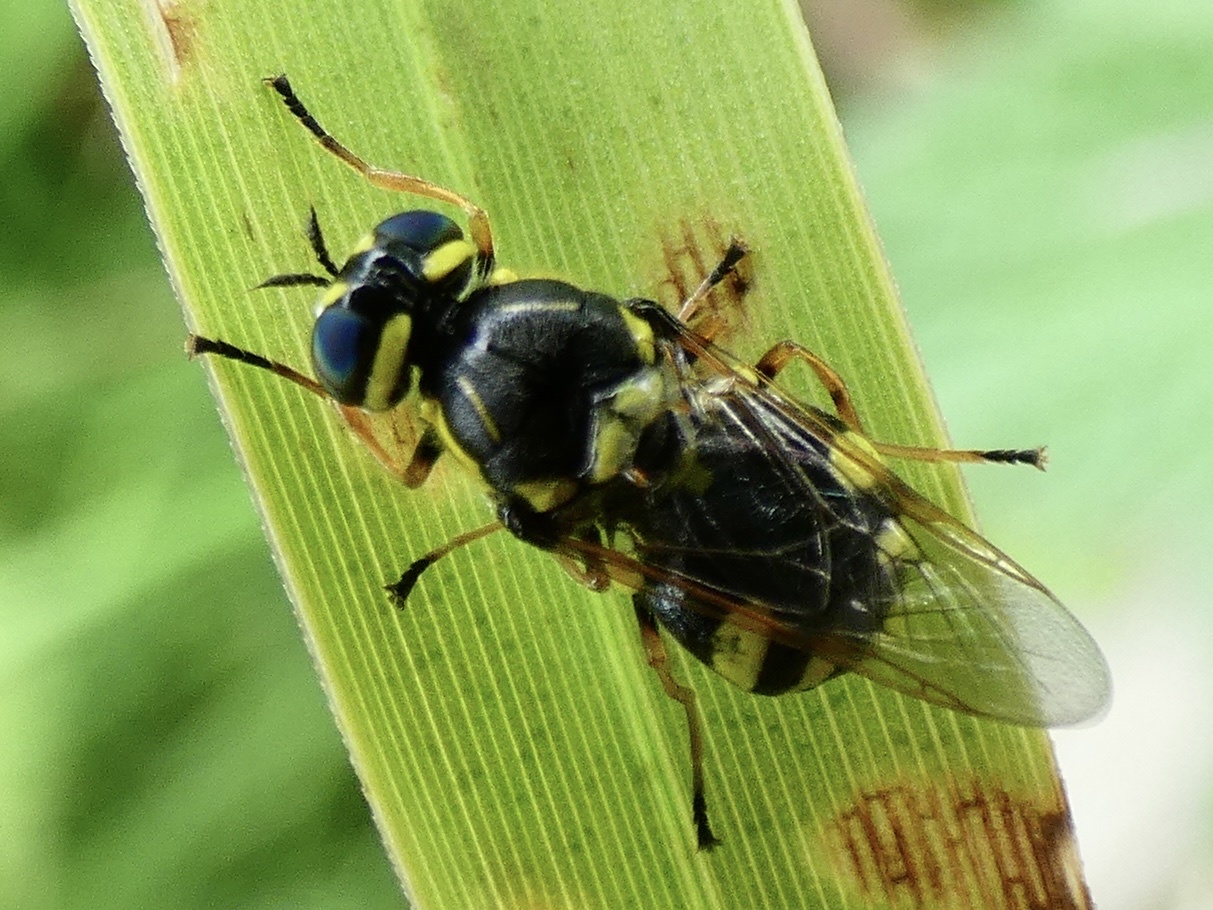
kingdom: Animalia
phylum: Arthropoda
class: Insecta
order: Diptera
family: Stratiomyidae
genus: Oxycera
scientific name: Oxycera rara
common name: Four-barred major
